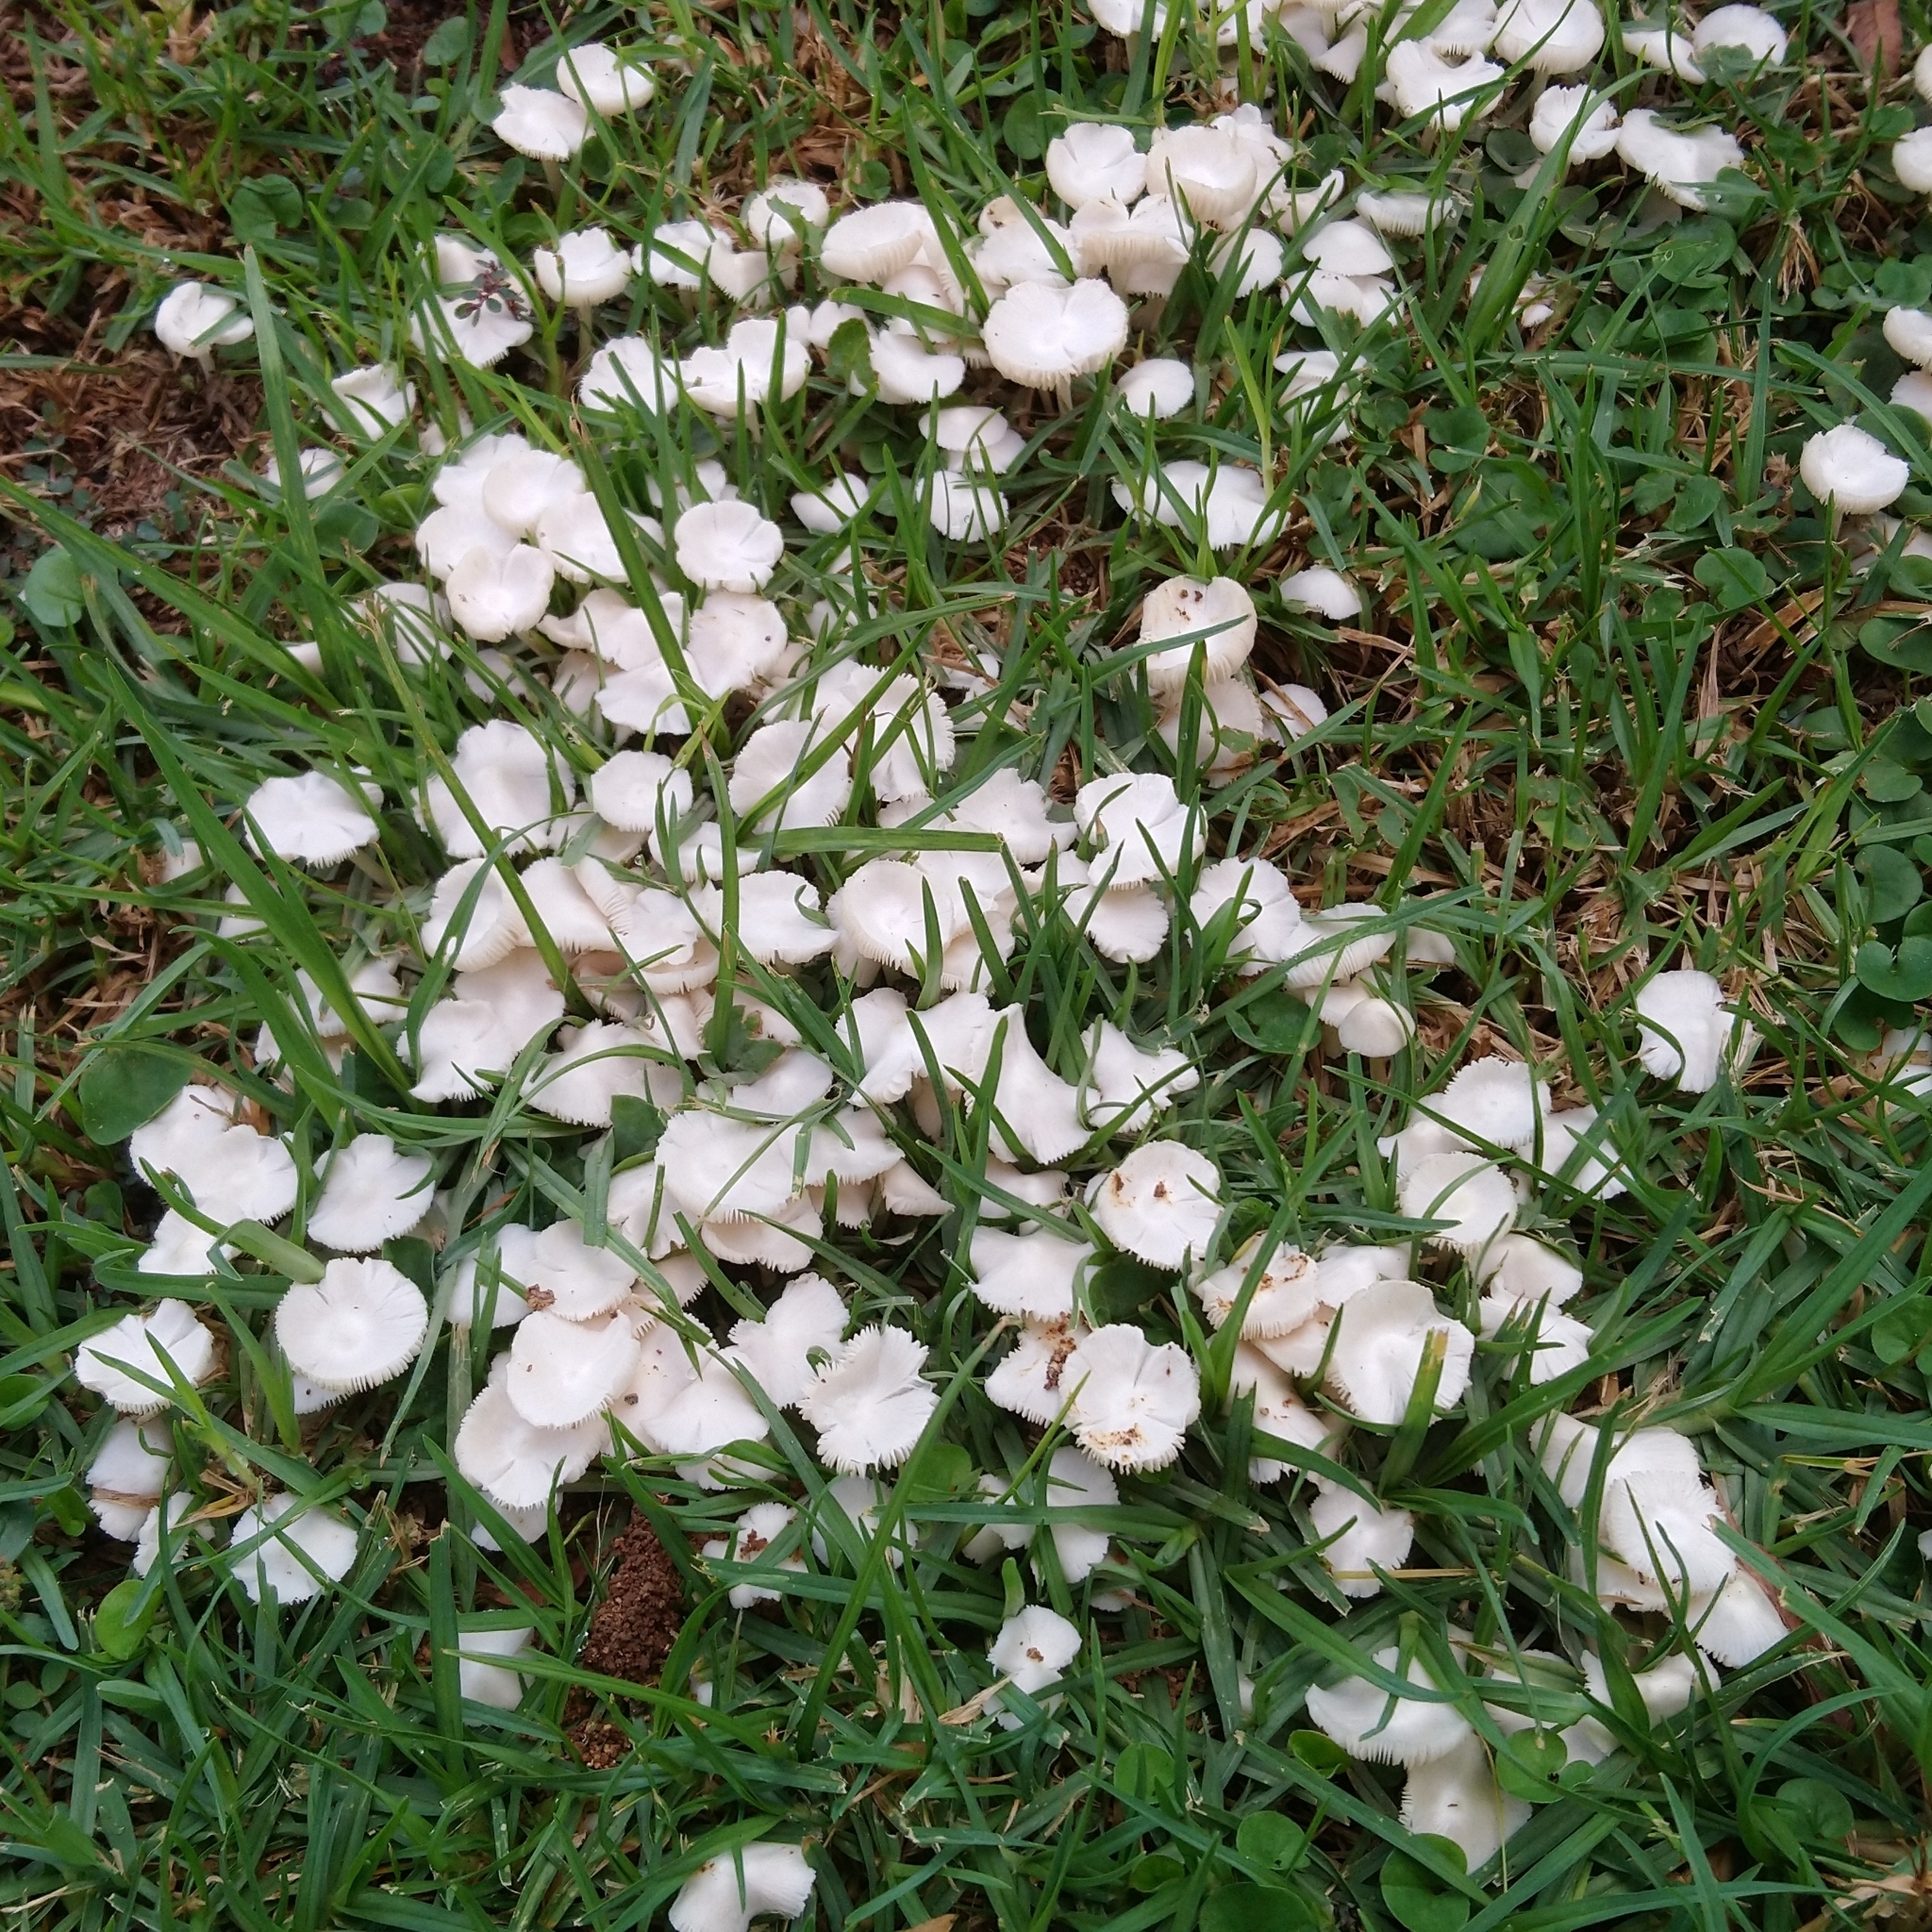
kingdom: Fungi
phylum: Basidiomycota
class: Agaricomycetes
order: Agaricales
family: Lyophyllaceae
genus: Termitomyces
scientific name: Termitomyces microcarpus
